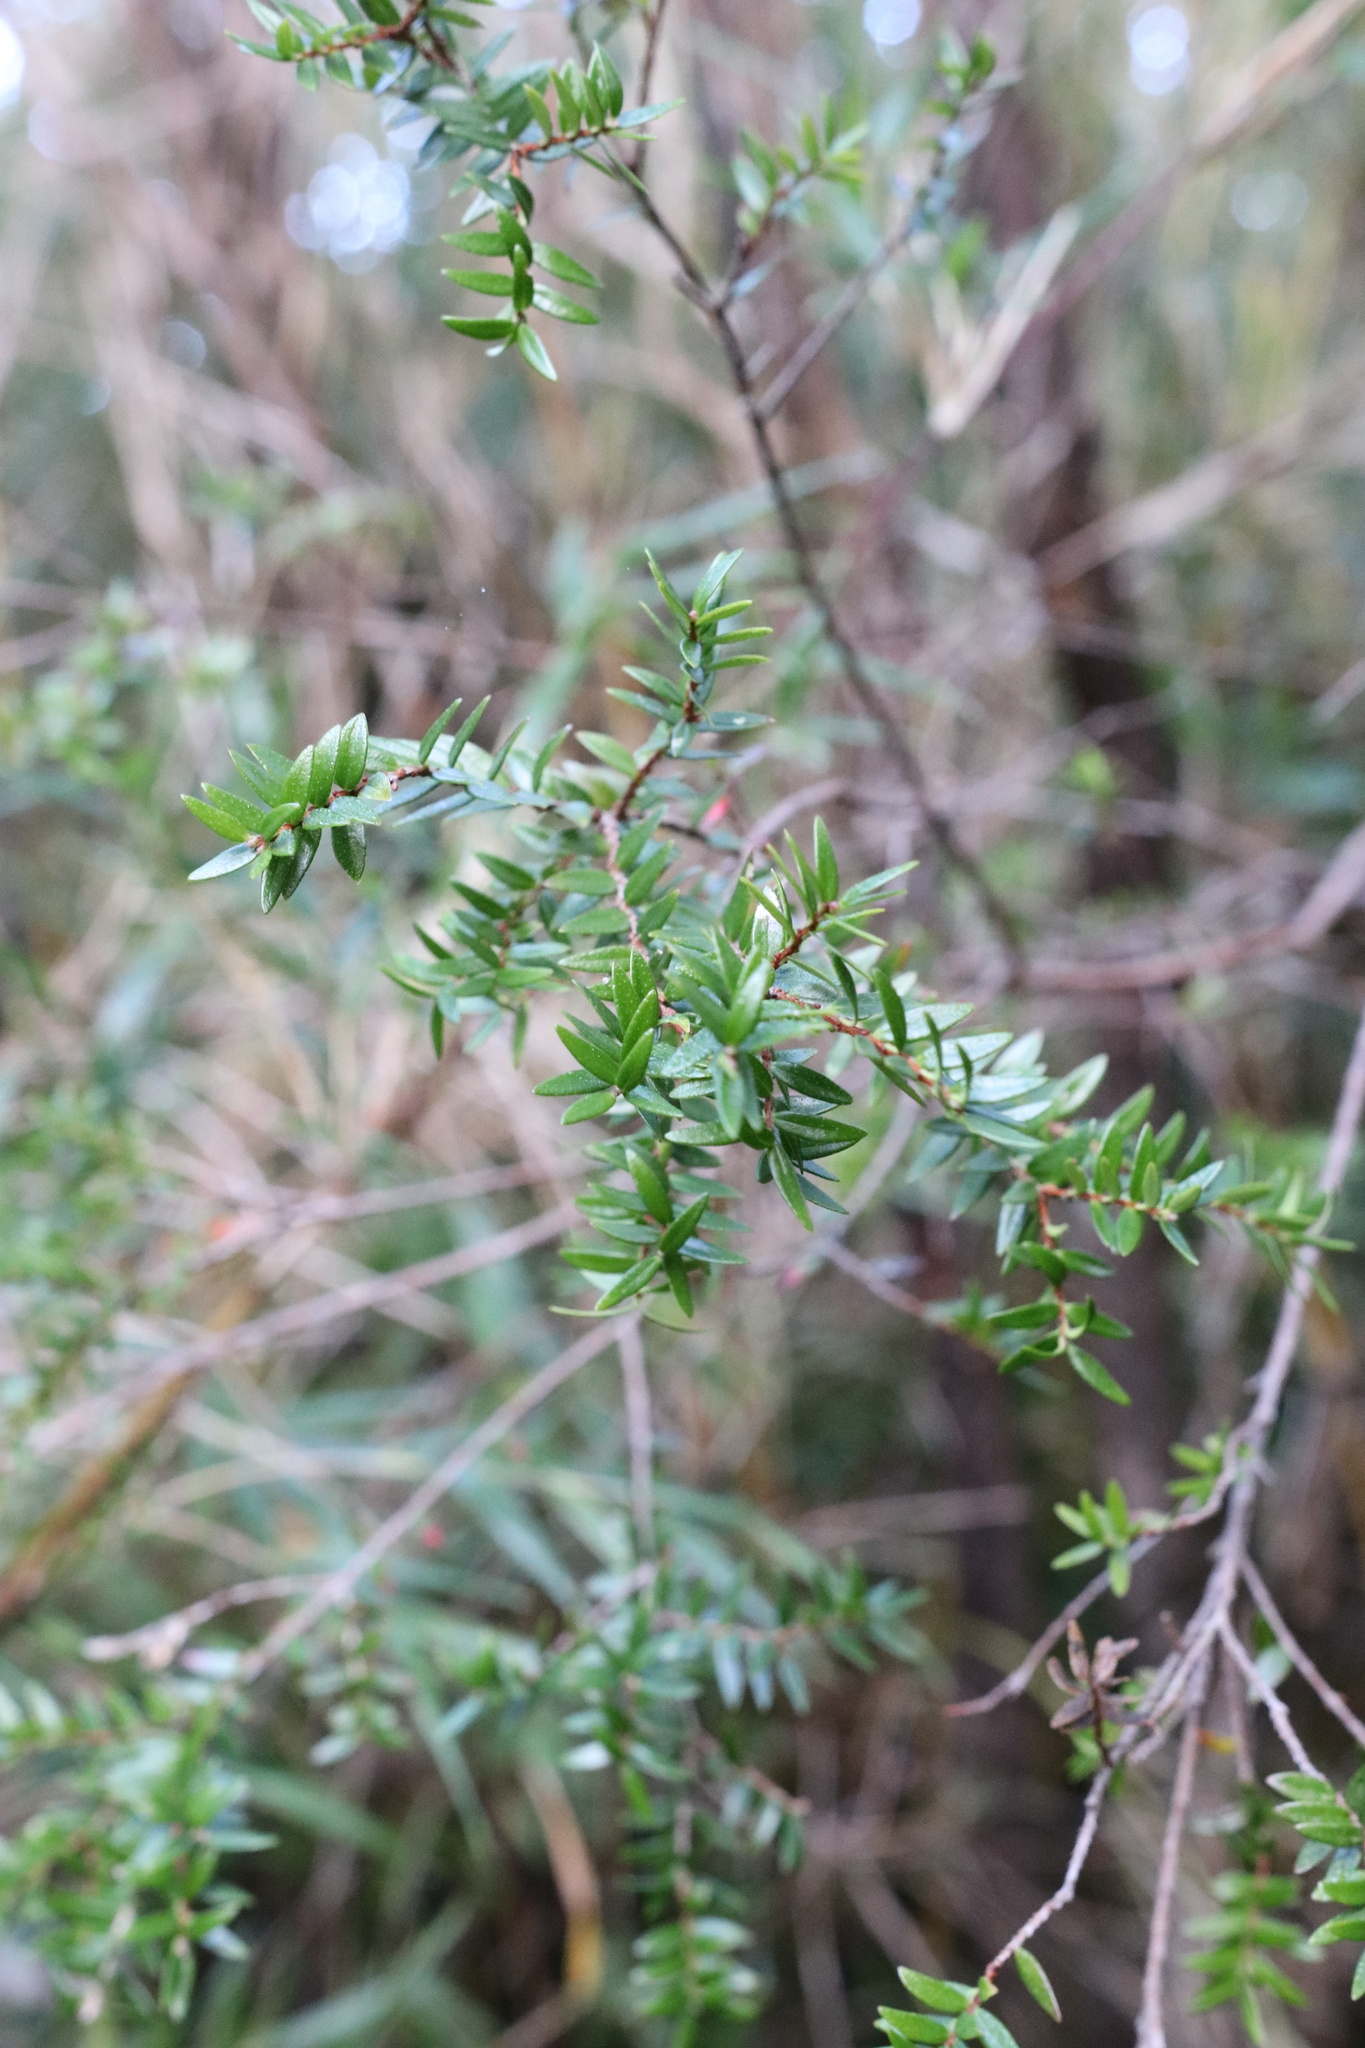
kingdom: Plantae
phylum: Tracheophyta
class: Magnoliopsida
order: Myrtales
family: Myrtaceae
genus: Tepualia
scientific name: Tepualia stipularis
